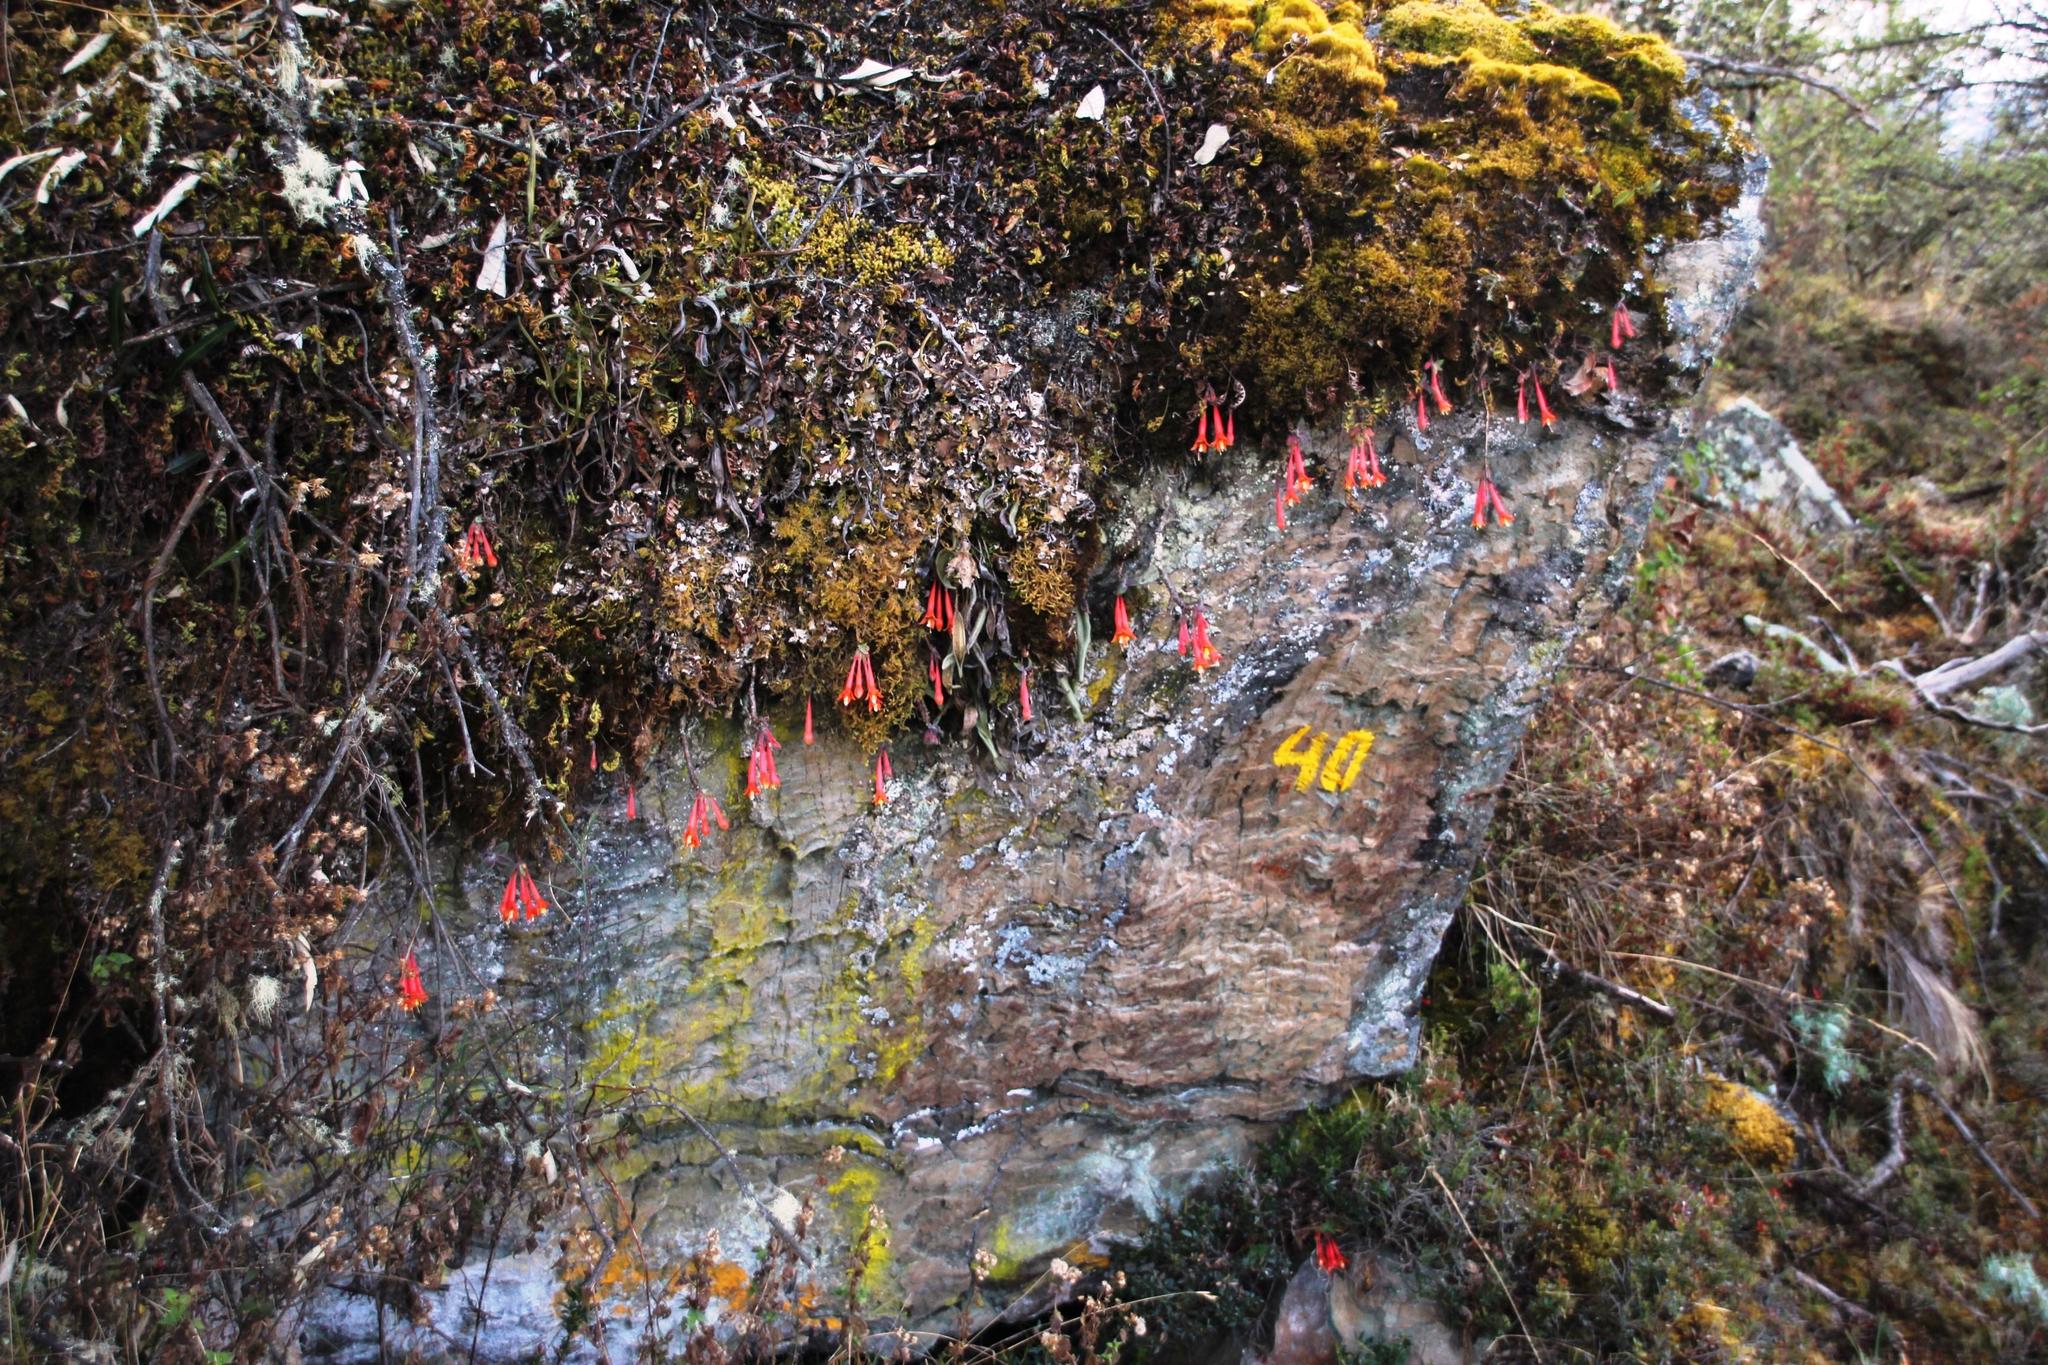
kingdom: Plantae
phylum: Tracheophyta
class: Magnoliopsida
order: Myrtales
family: Onagraceae
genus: Fuchsia
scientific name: Fuchsia apetala
